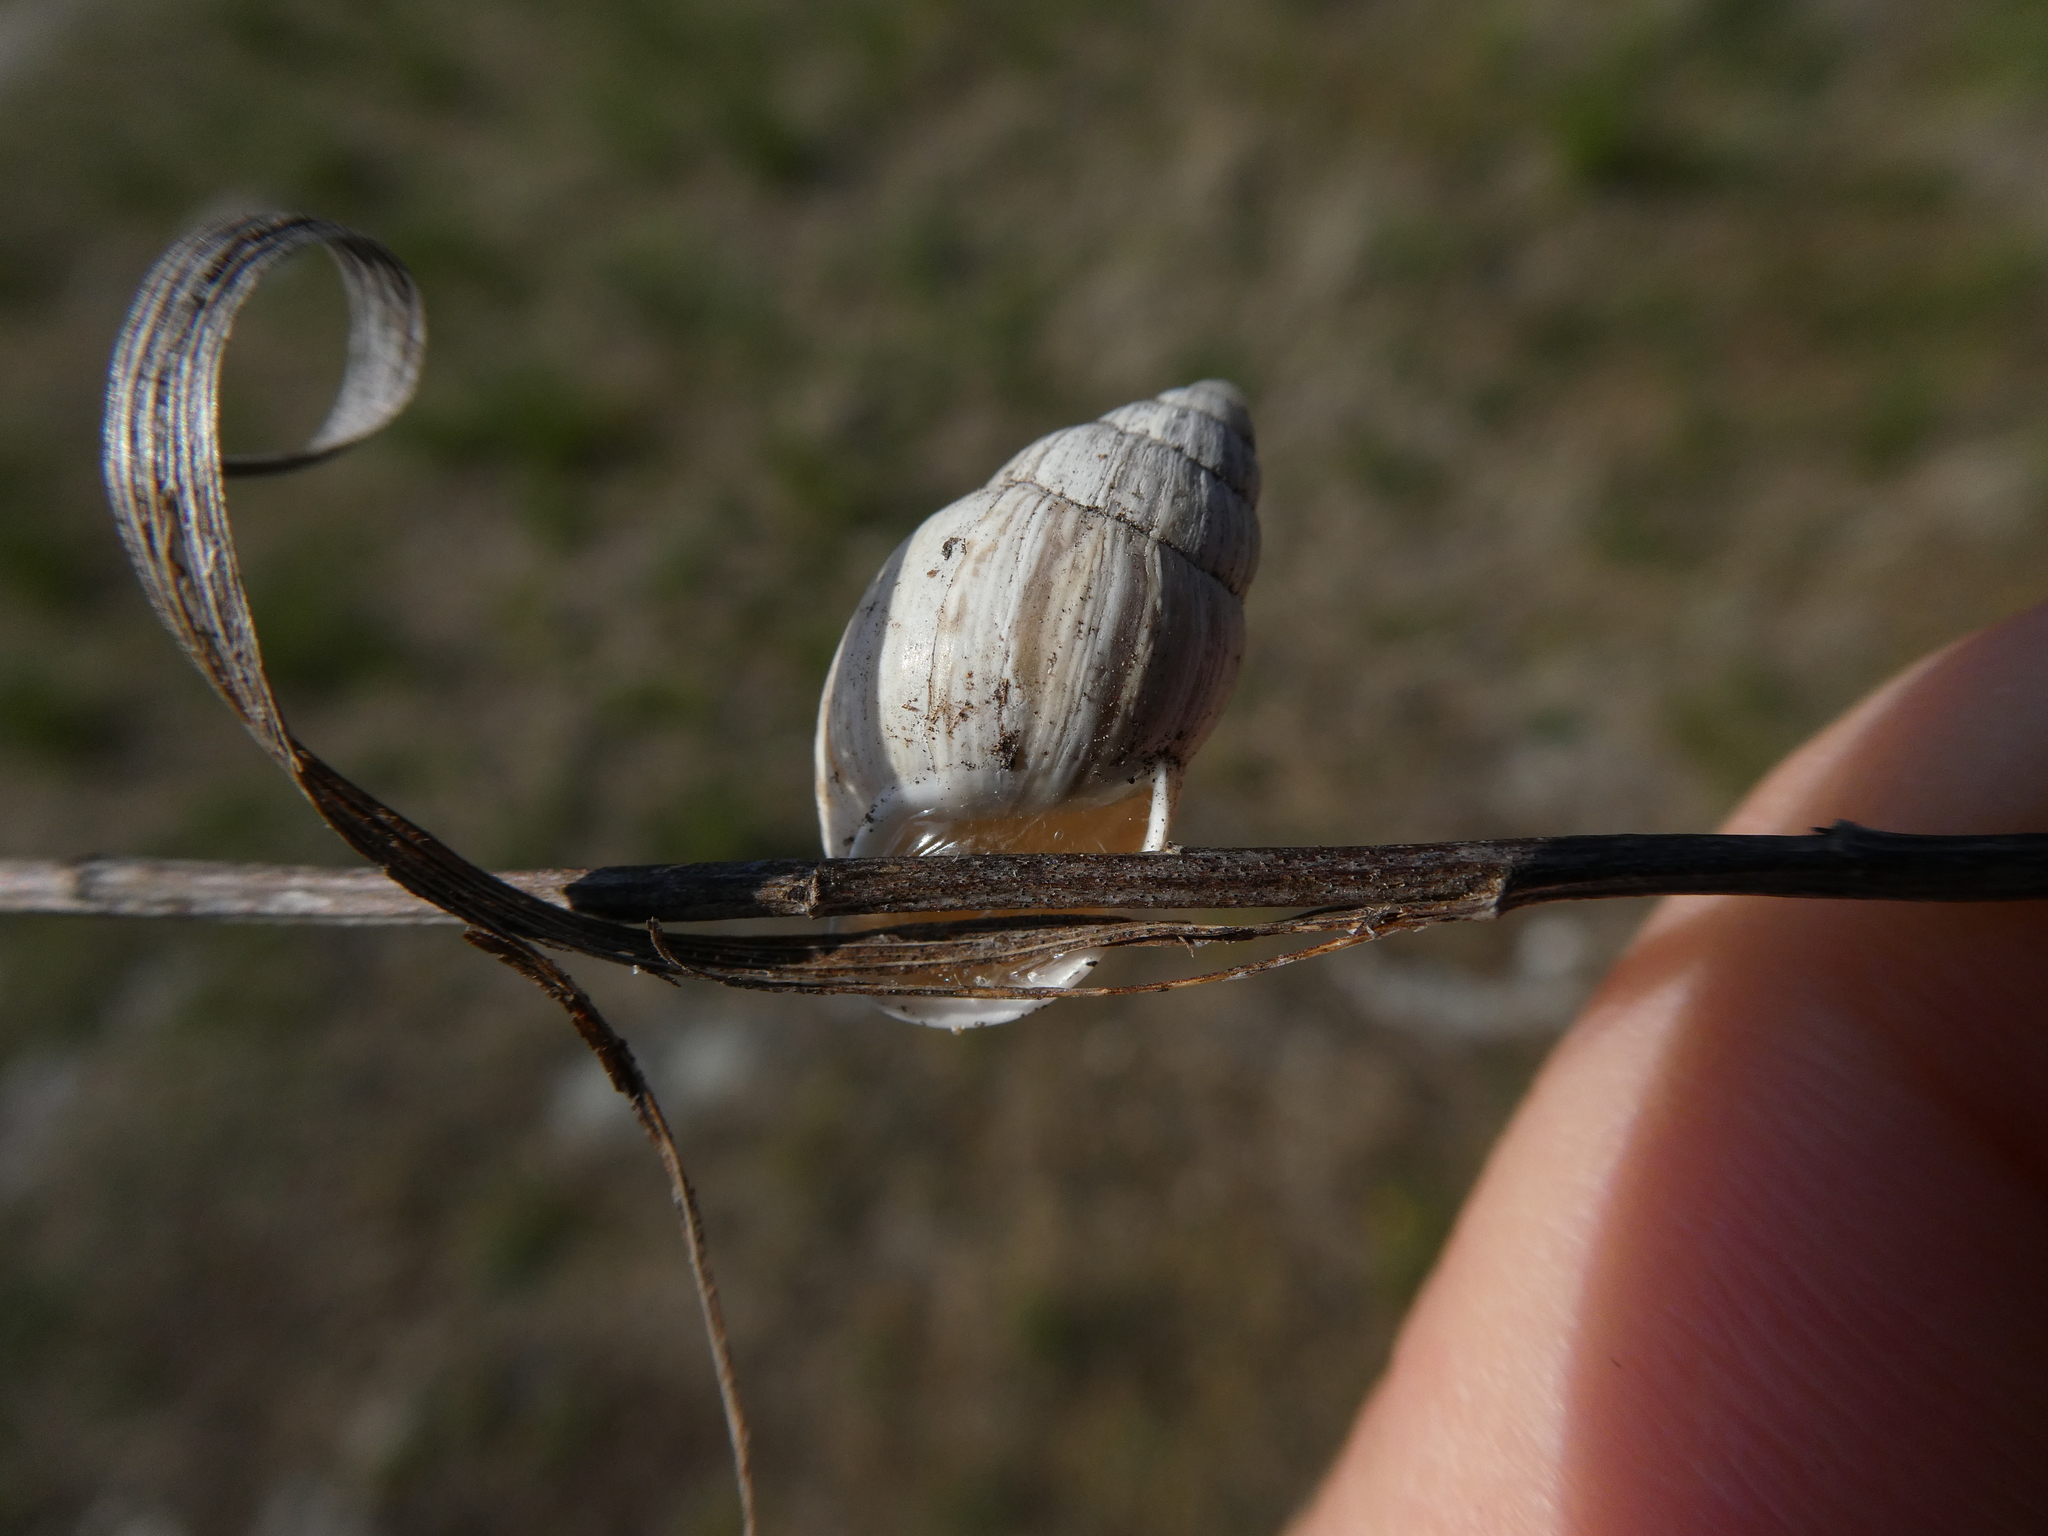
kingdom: Animalia
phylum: Mollusca
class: Gastropoda
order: Stylommatophora
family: Enidae
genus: Zebrina
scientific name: Zebrina detrita
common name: Large bulin
